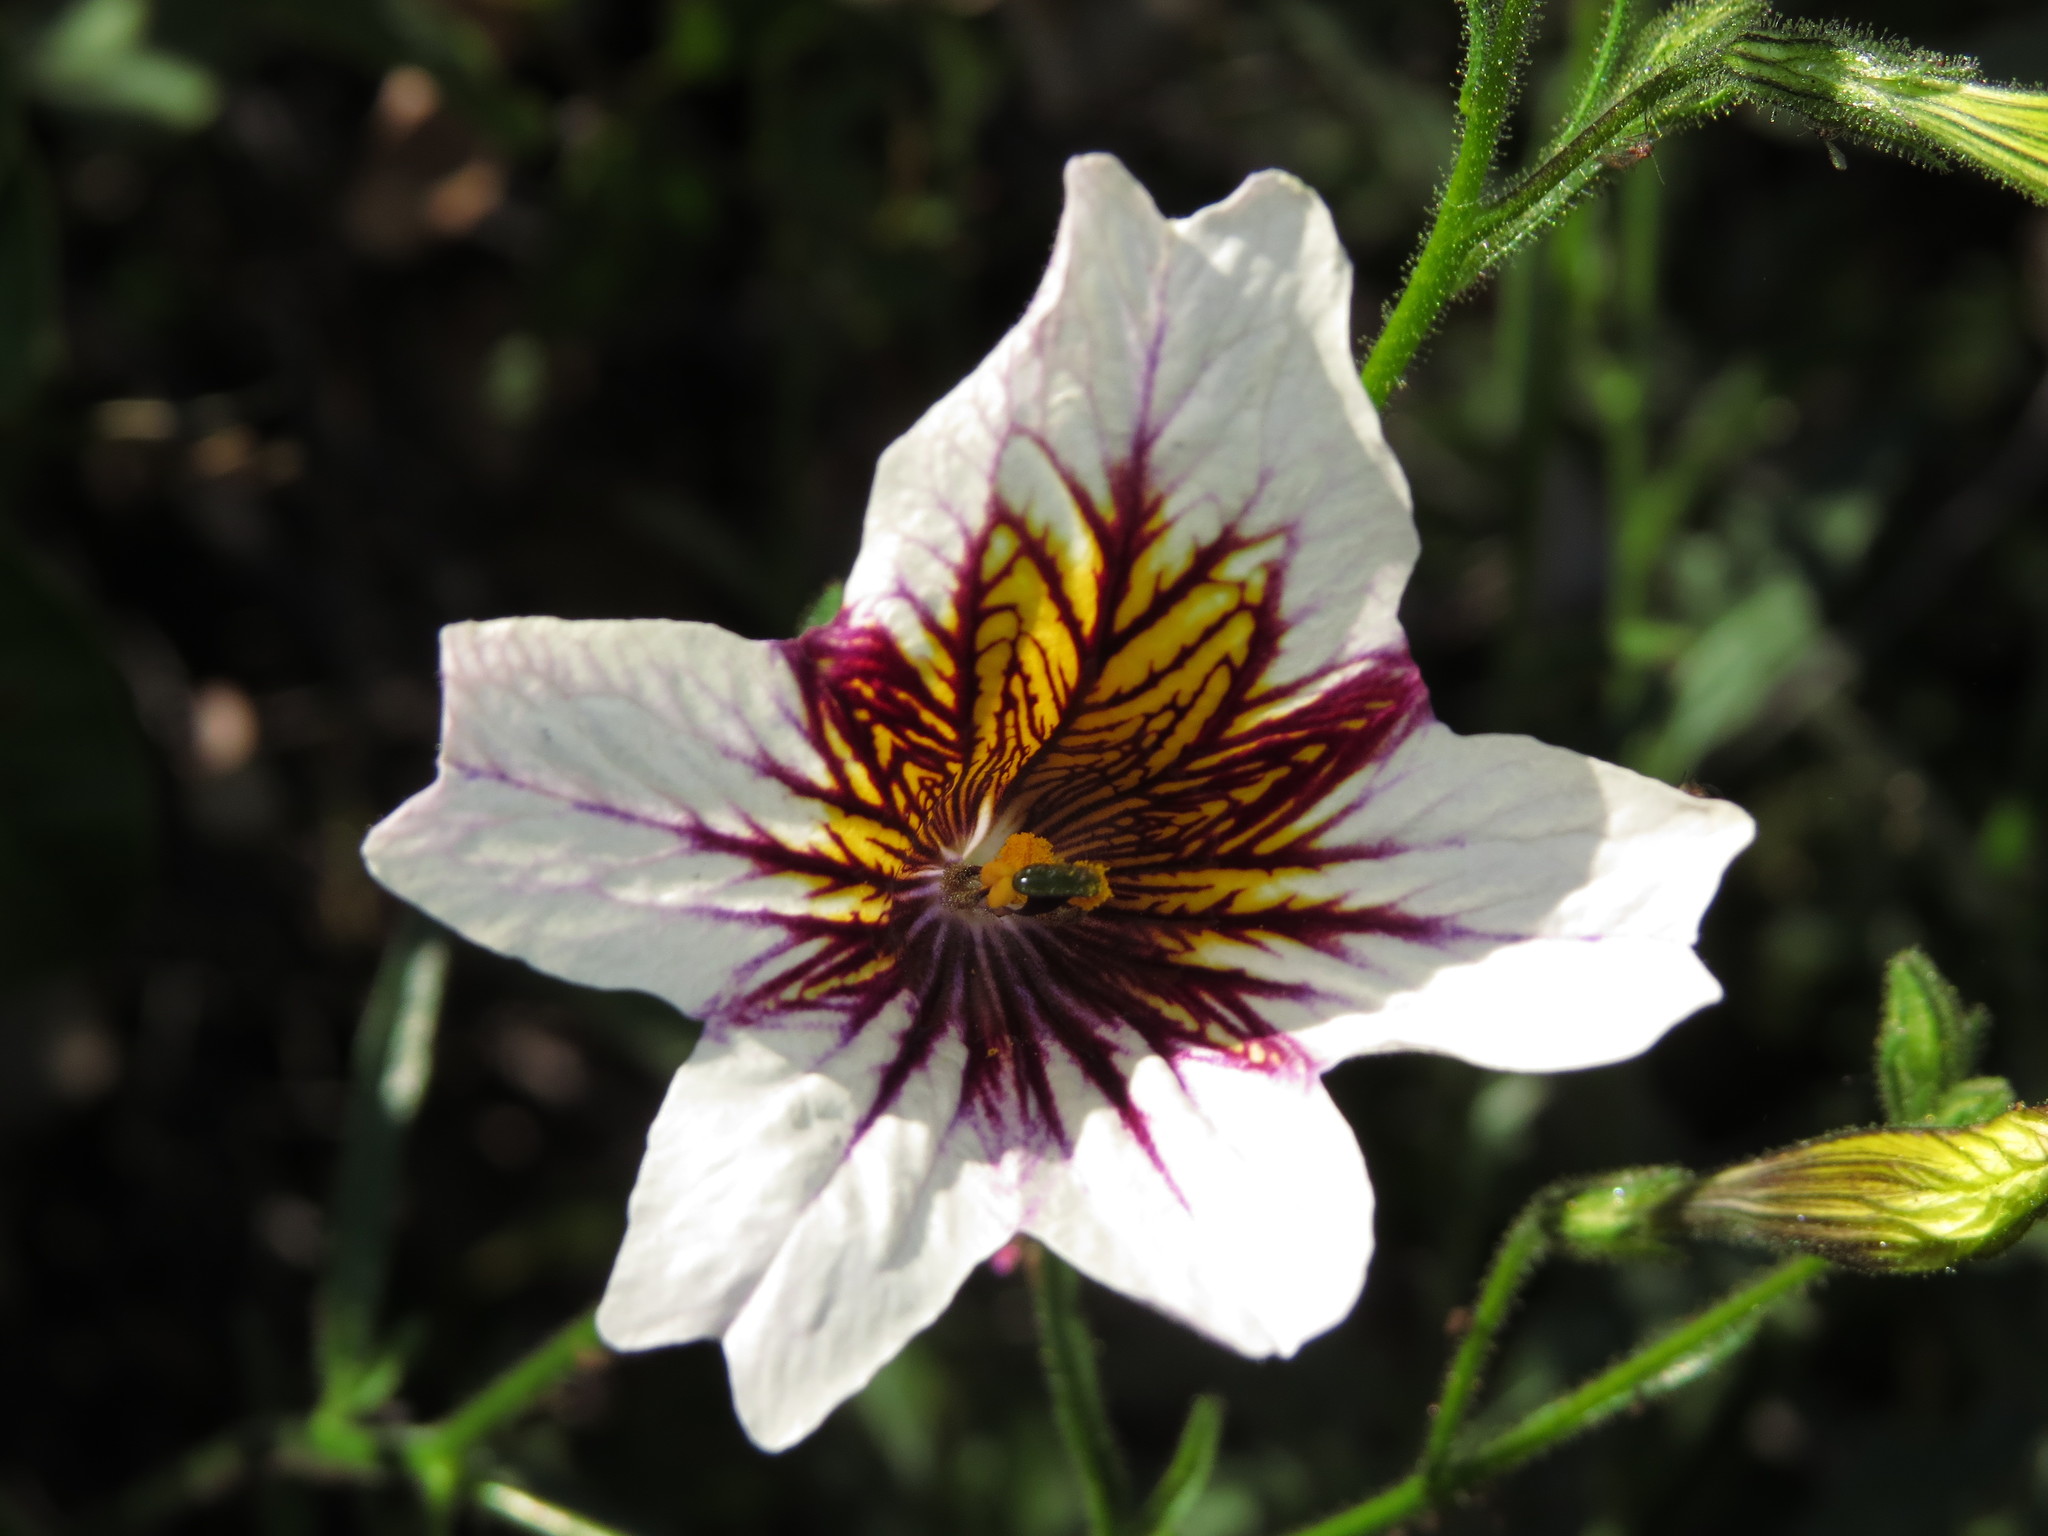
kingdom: Plantae
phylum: Tracheophyta
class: Magnoliopsida
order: Solanales
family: Solanaceae
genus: Salpiglossis
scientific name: Salpiglossis sinuata
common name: Painted-tongue
